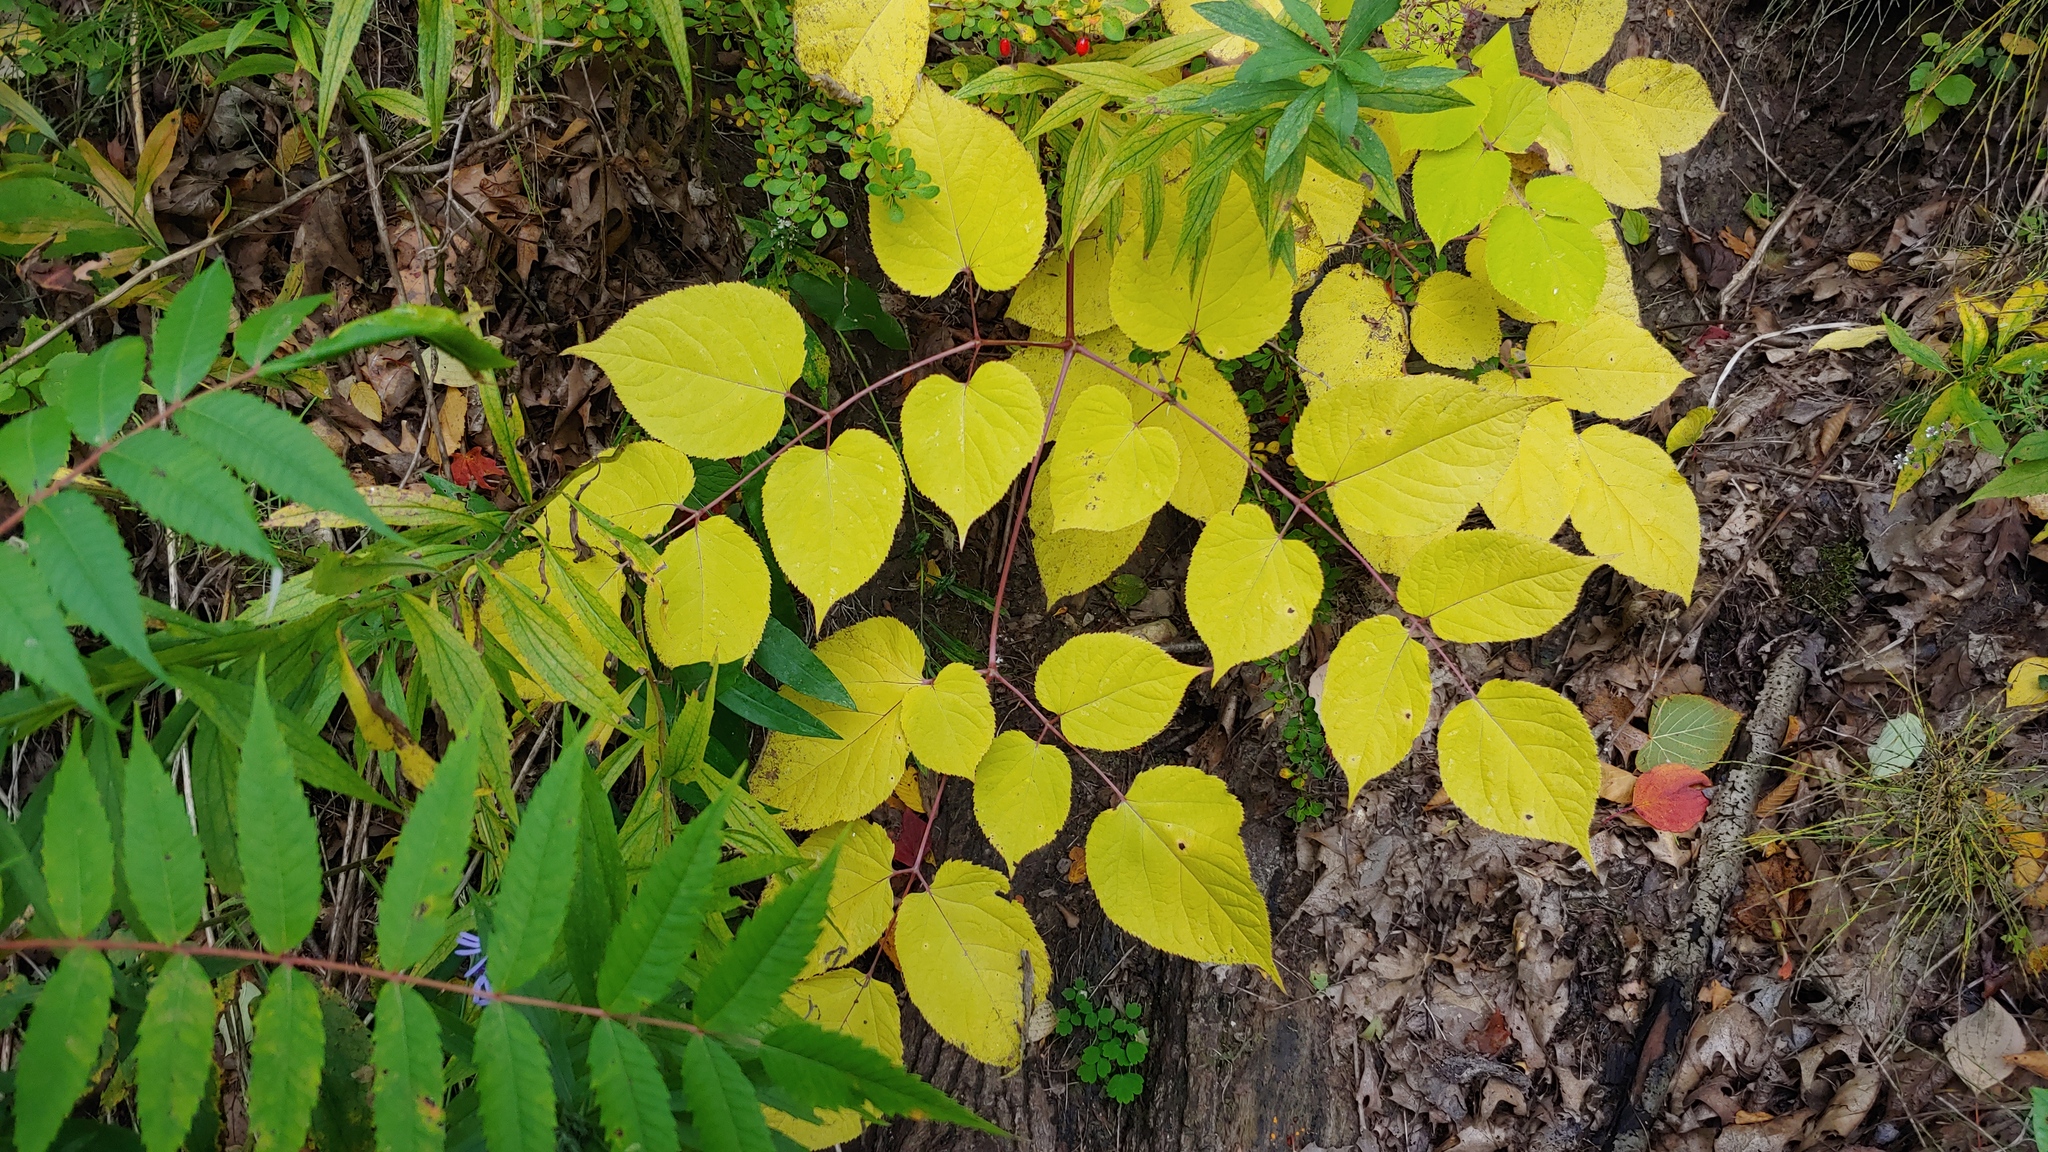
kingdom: Plantae
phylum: Tracheophyta
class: Magnoliopsida
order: Apiales
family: Araliaceae
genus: Aralia
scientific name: Aralia racemosa
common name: American-spikenard
